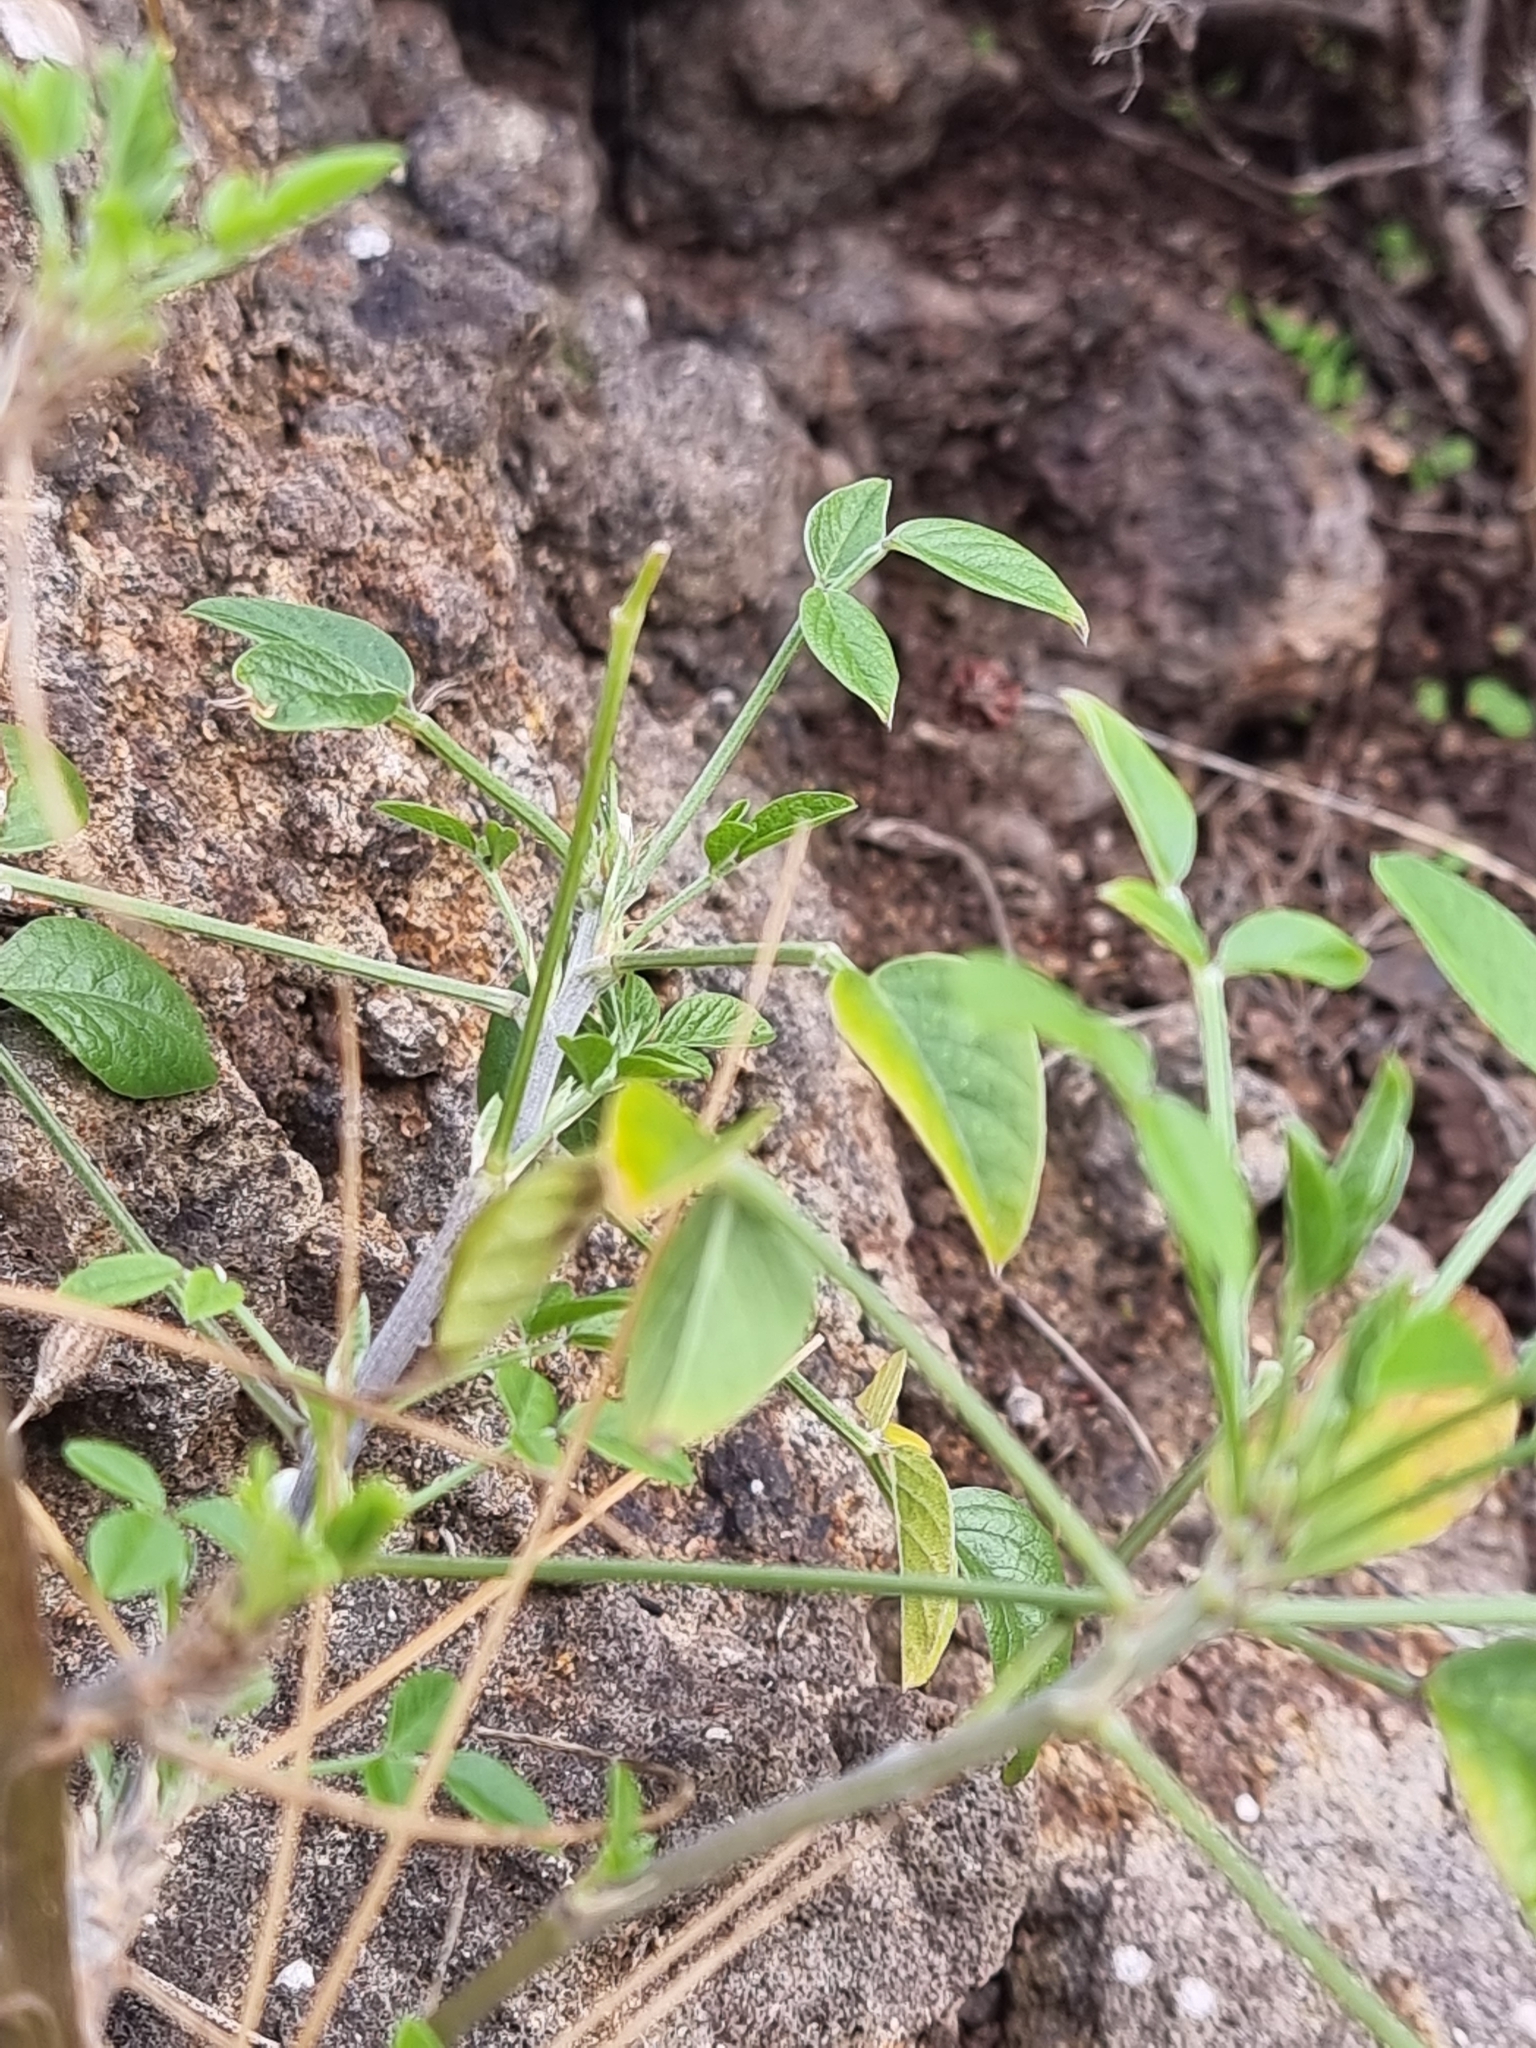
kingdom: Plantae
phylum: Tracheophyta
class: Magnoliopsida
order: Fabales
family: Fabaceae
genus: Bituminaria
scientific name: Bituminaria bituminosa
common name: Arabian pea
